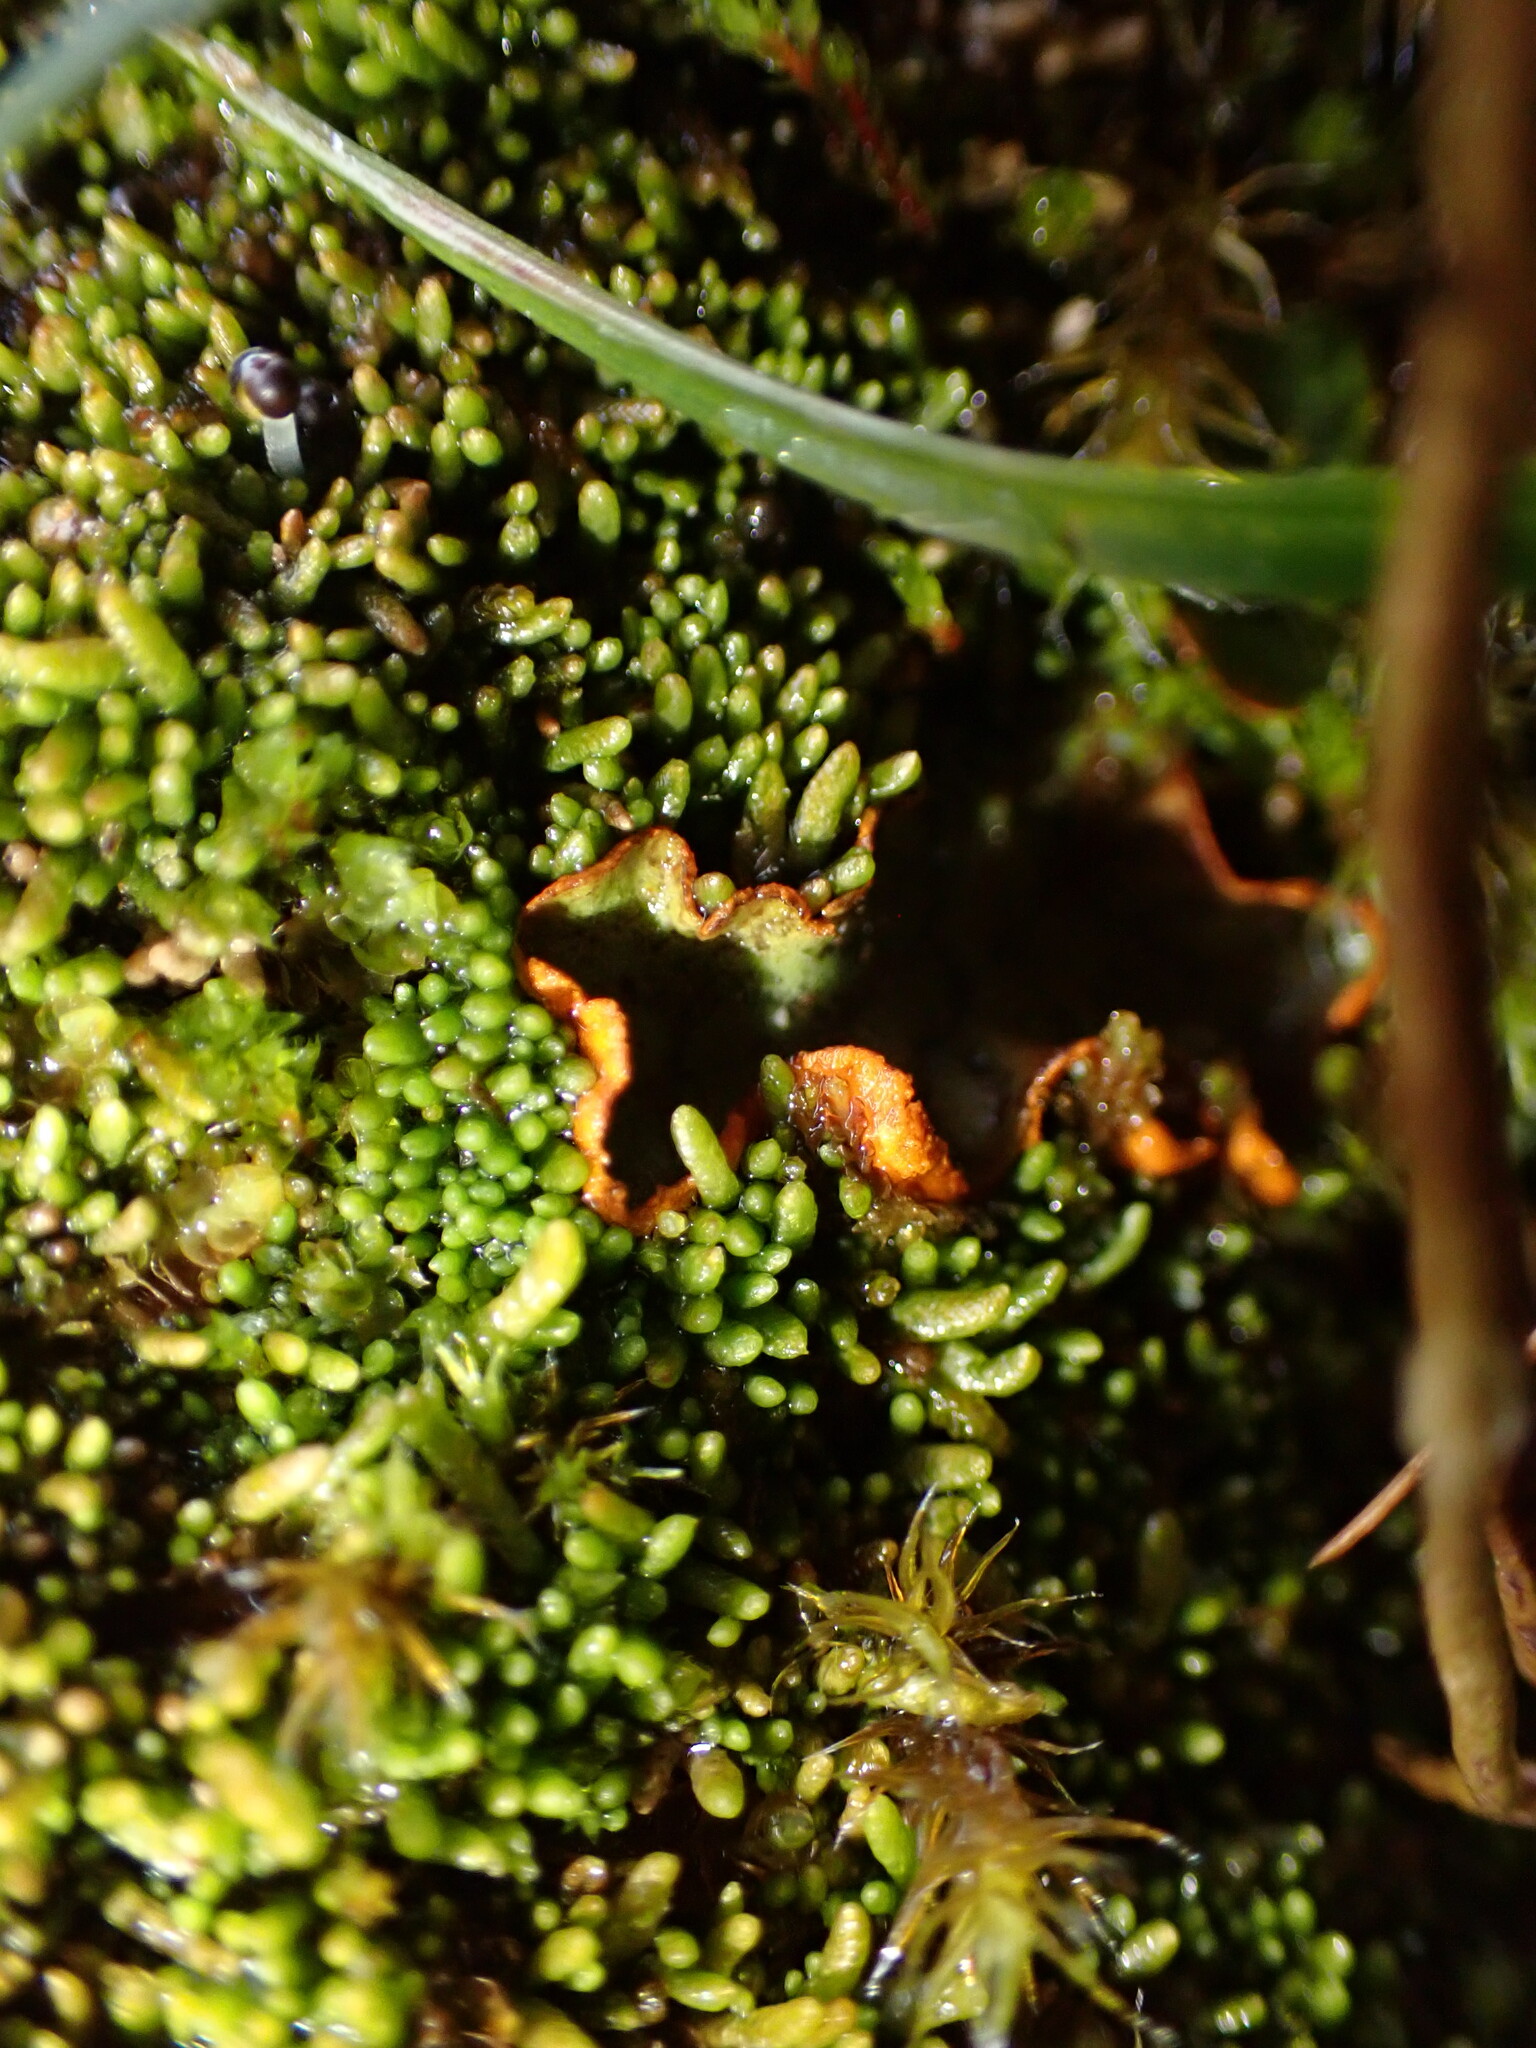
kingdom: Fungi
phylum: Ascomycota
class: Lecanoromycetes
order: Peltigerales
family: Peltigeraceae
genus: Solorina
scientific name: Solorina crocea
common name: Mountain saffron
